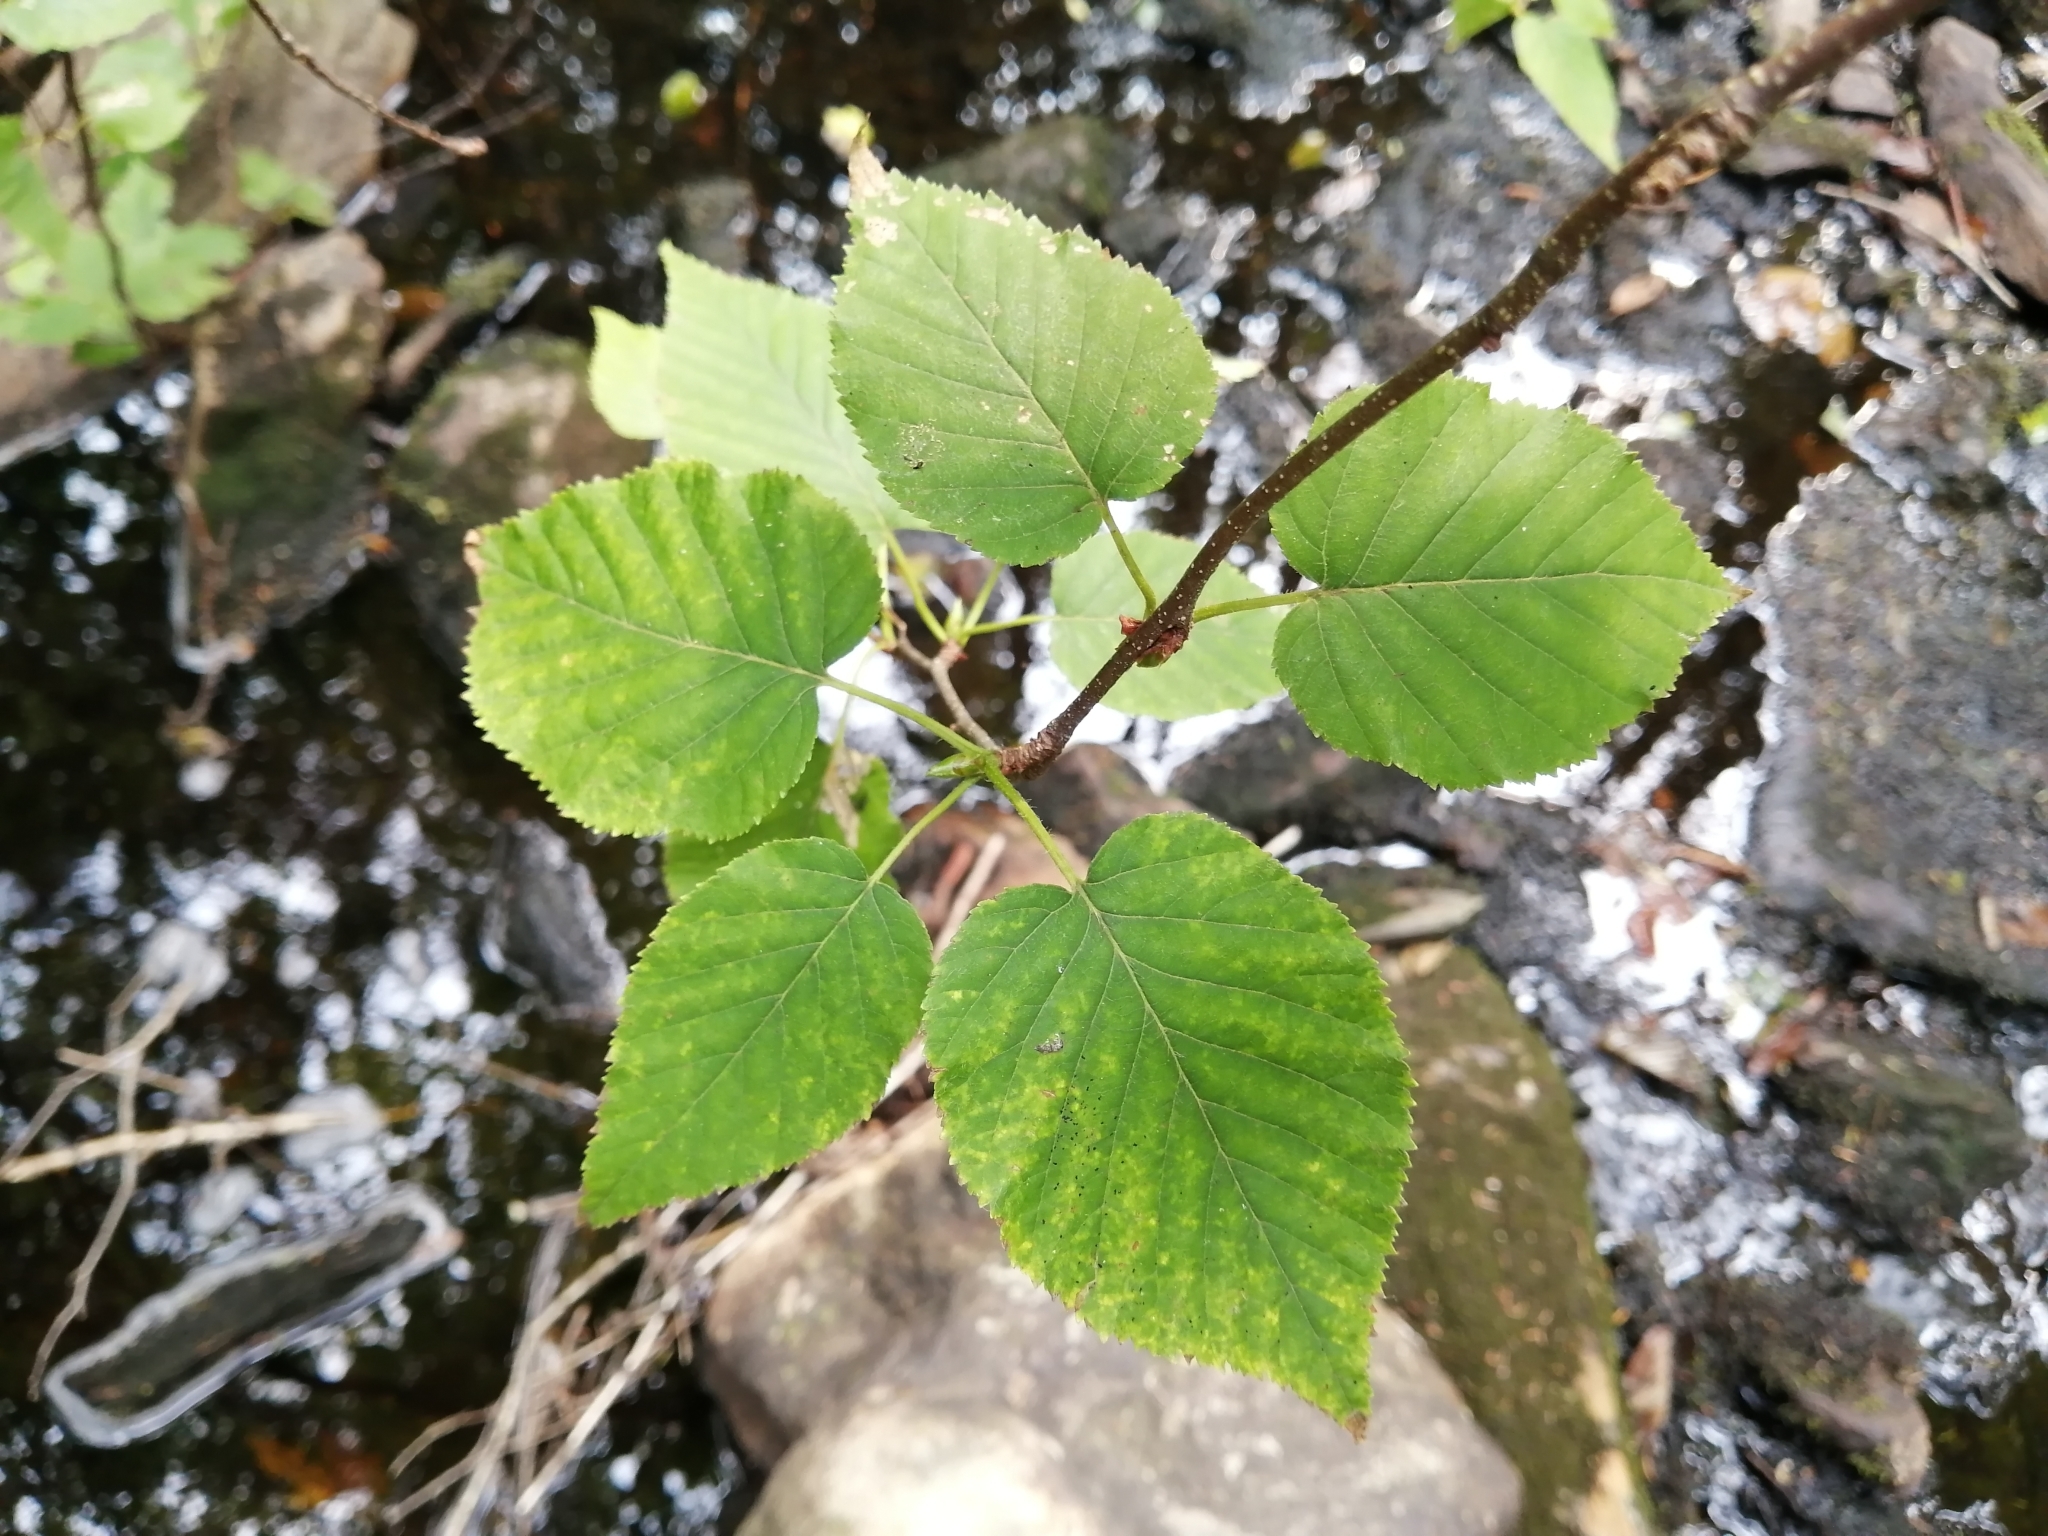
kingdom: Plantae
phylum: Tracheophyta
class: Magnoliopsida
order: Fagales
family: Betulaceae
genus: Betula
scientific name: Betula cordifolia
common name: Mountain white birch
